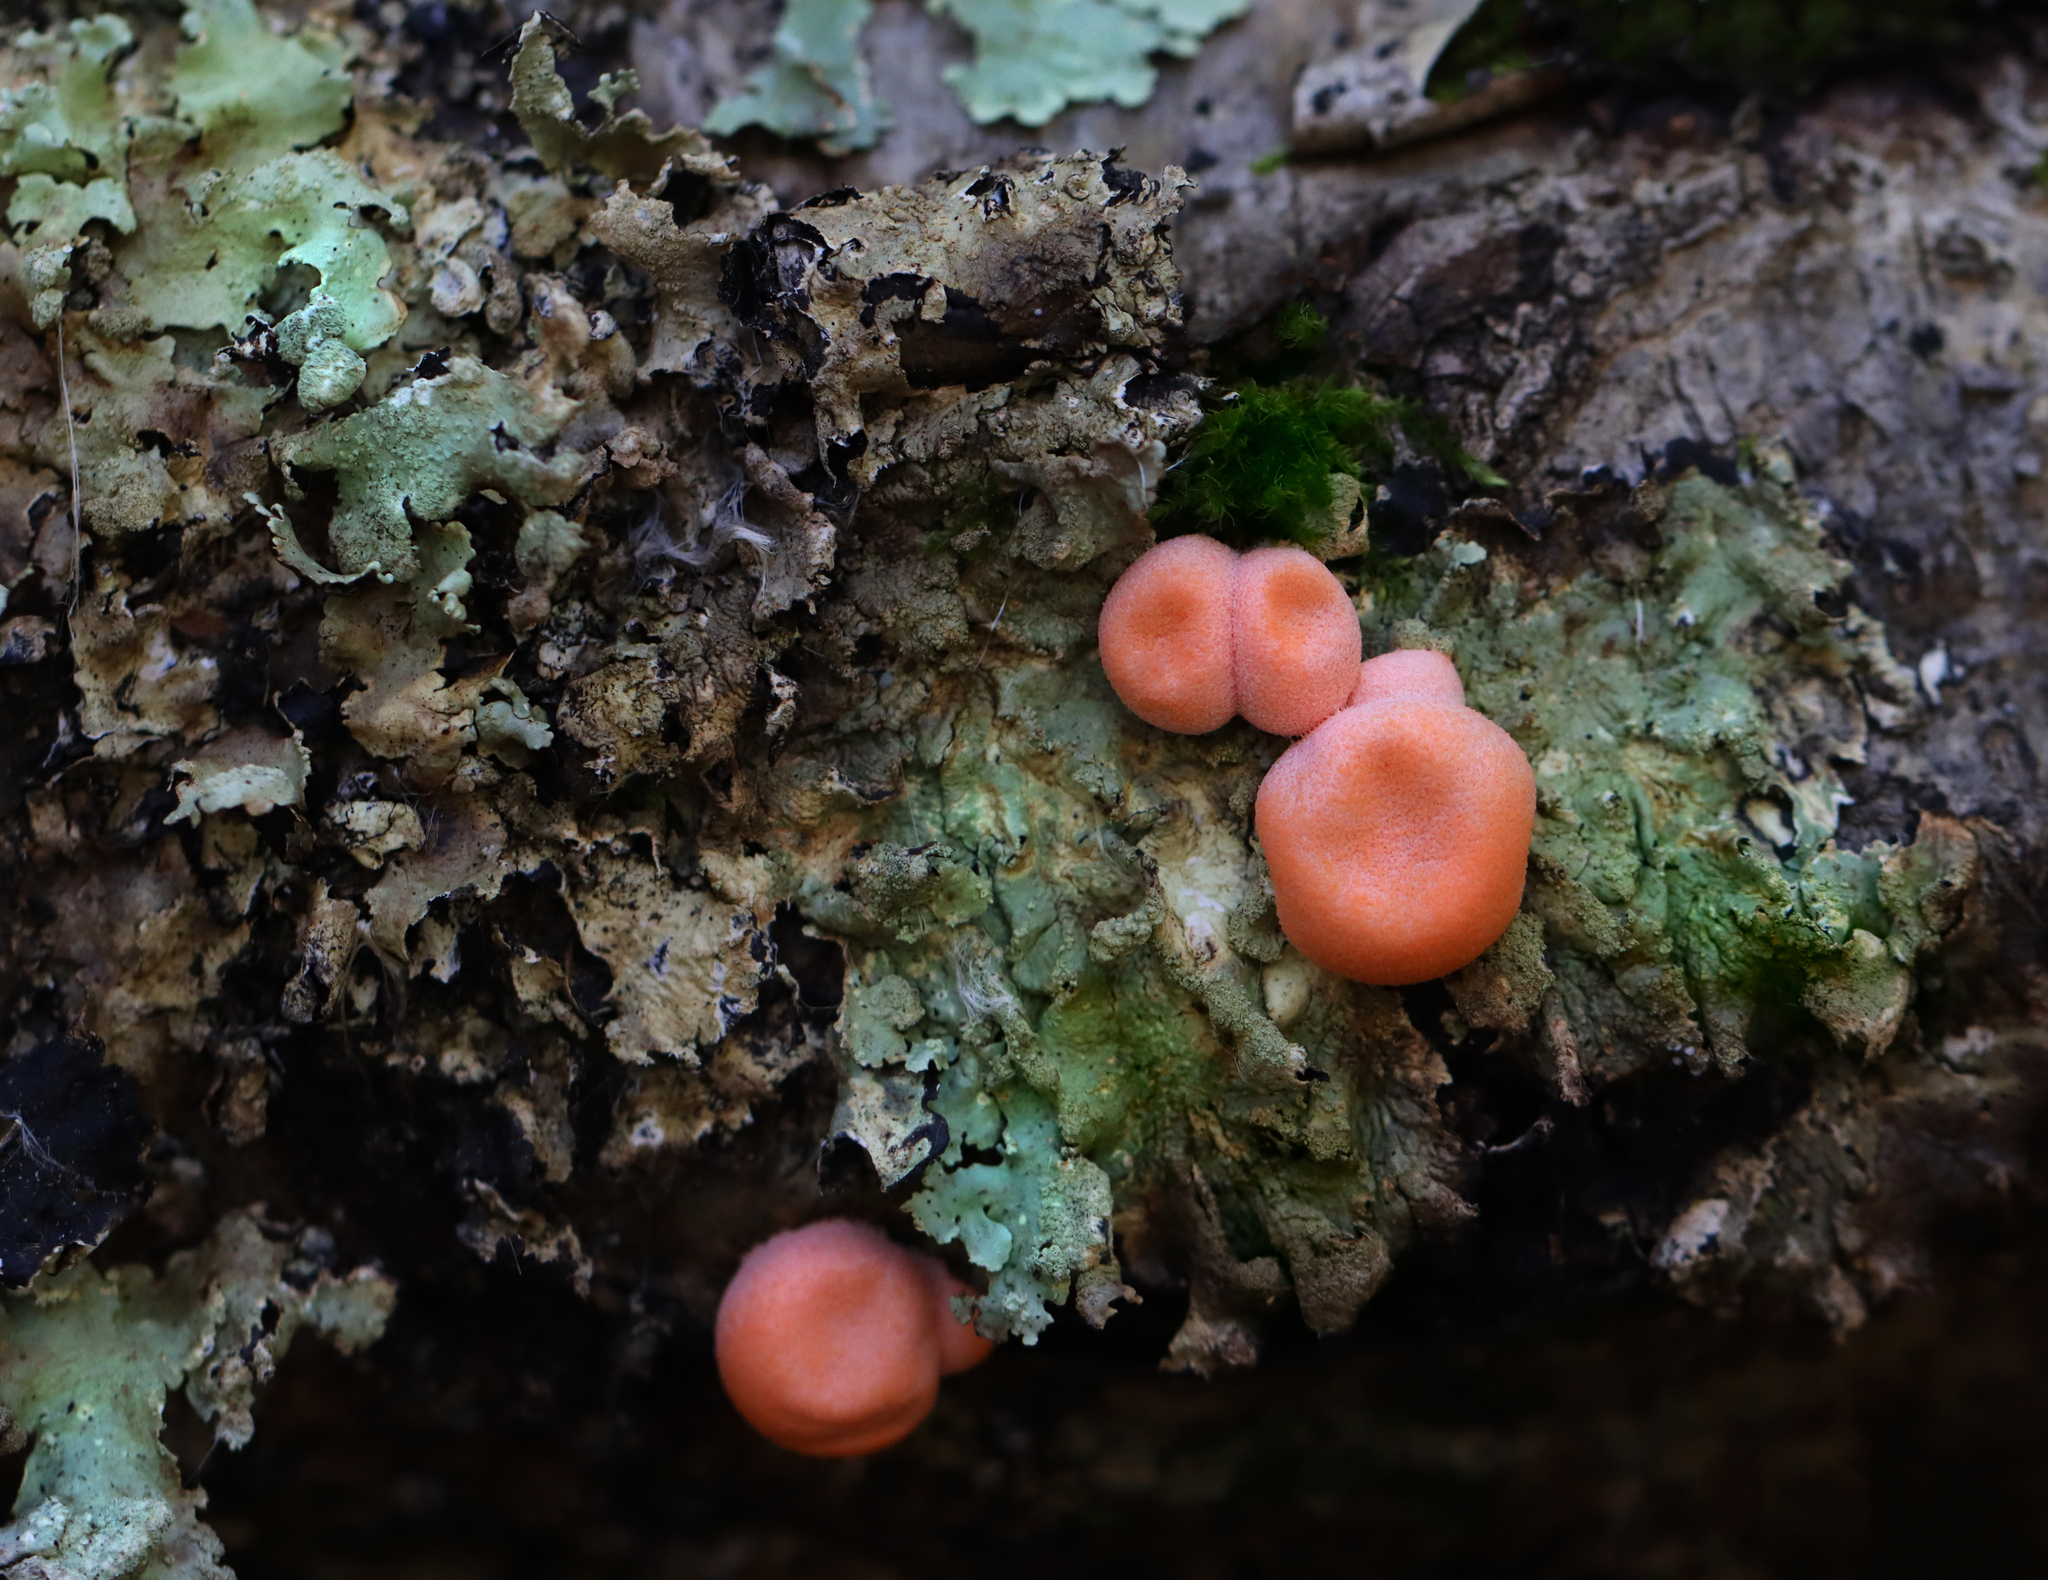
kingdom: Protozoa
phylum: Mycetozoa
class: Myxomycetes
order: Cribrariales
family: Tubiferaceae
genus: Lycogala
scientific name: Lycogala epidendrum
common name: Wolf's milk
